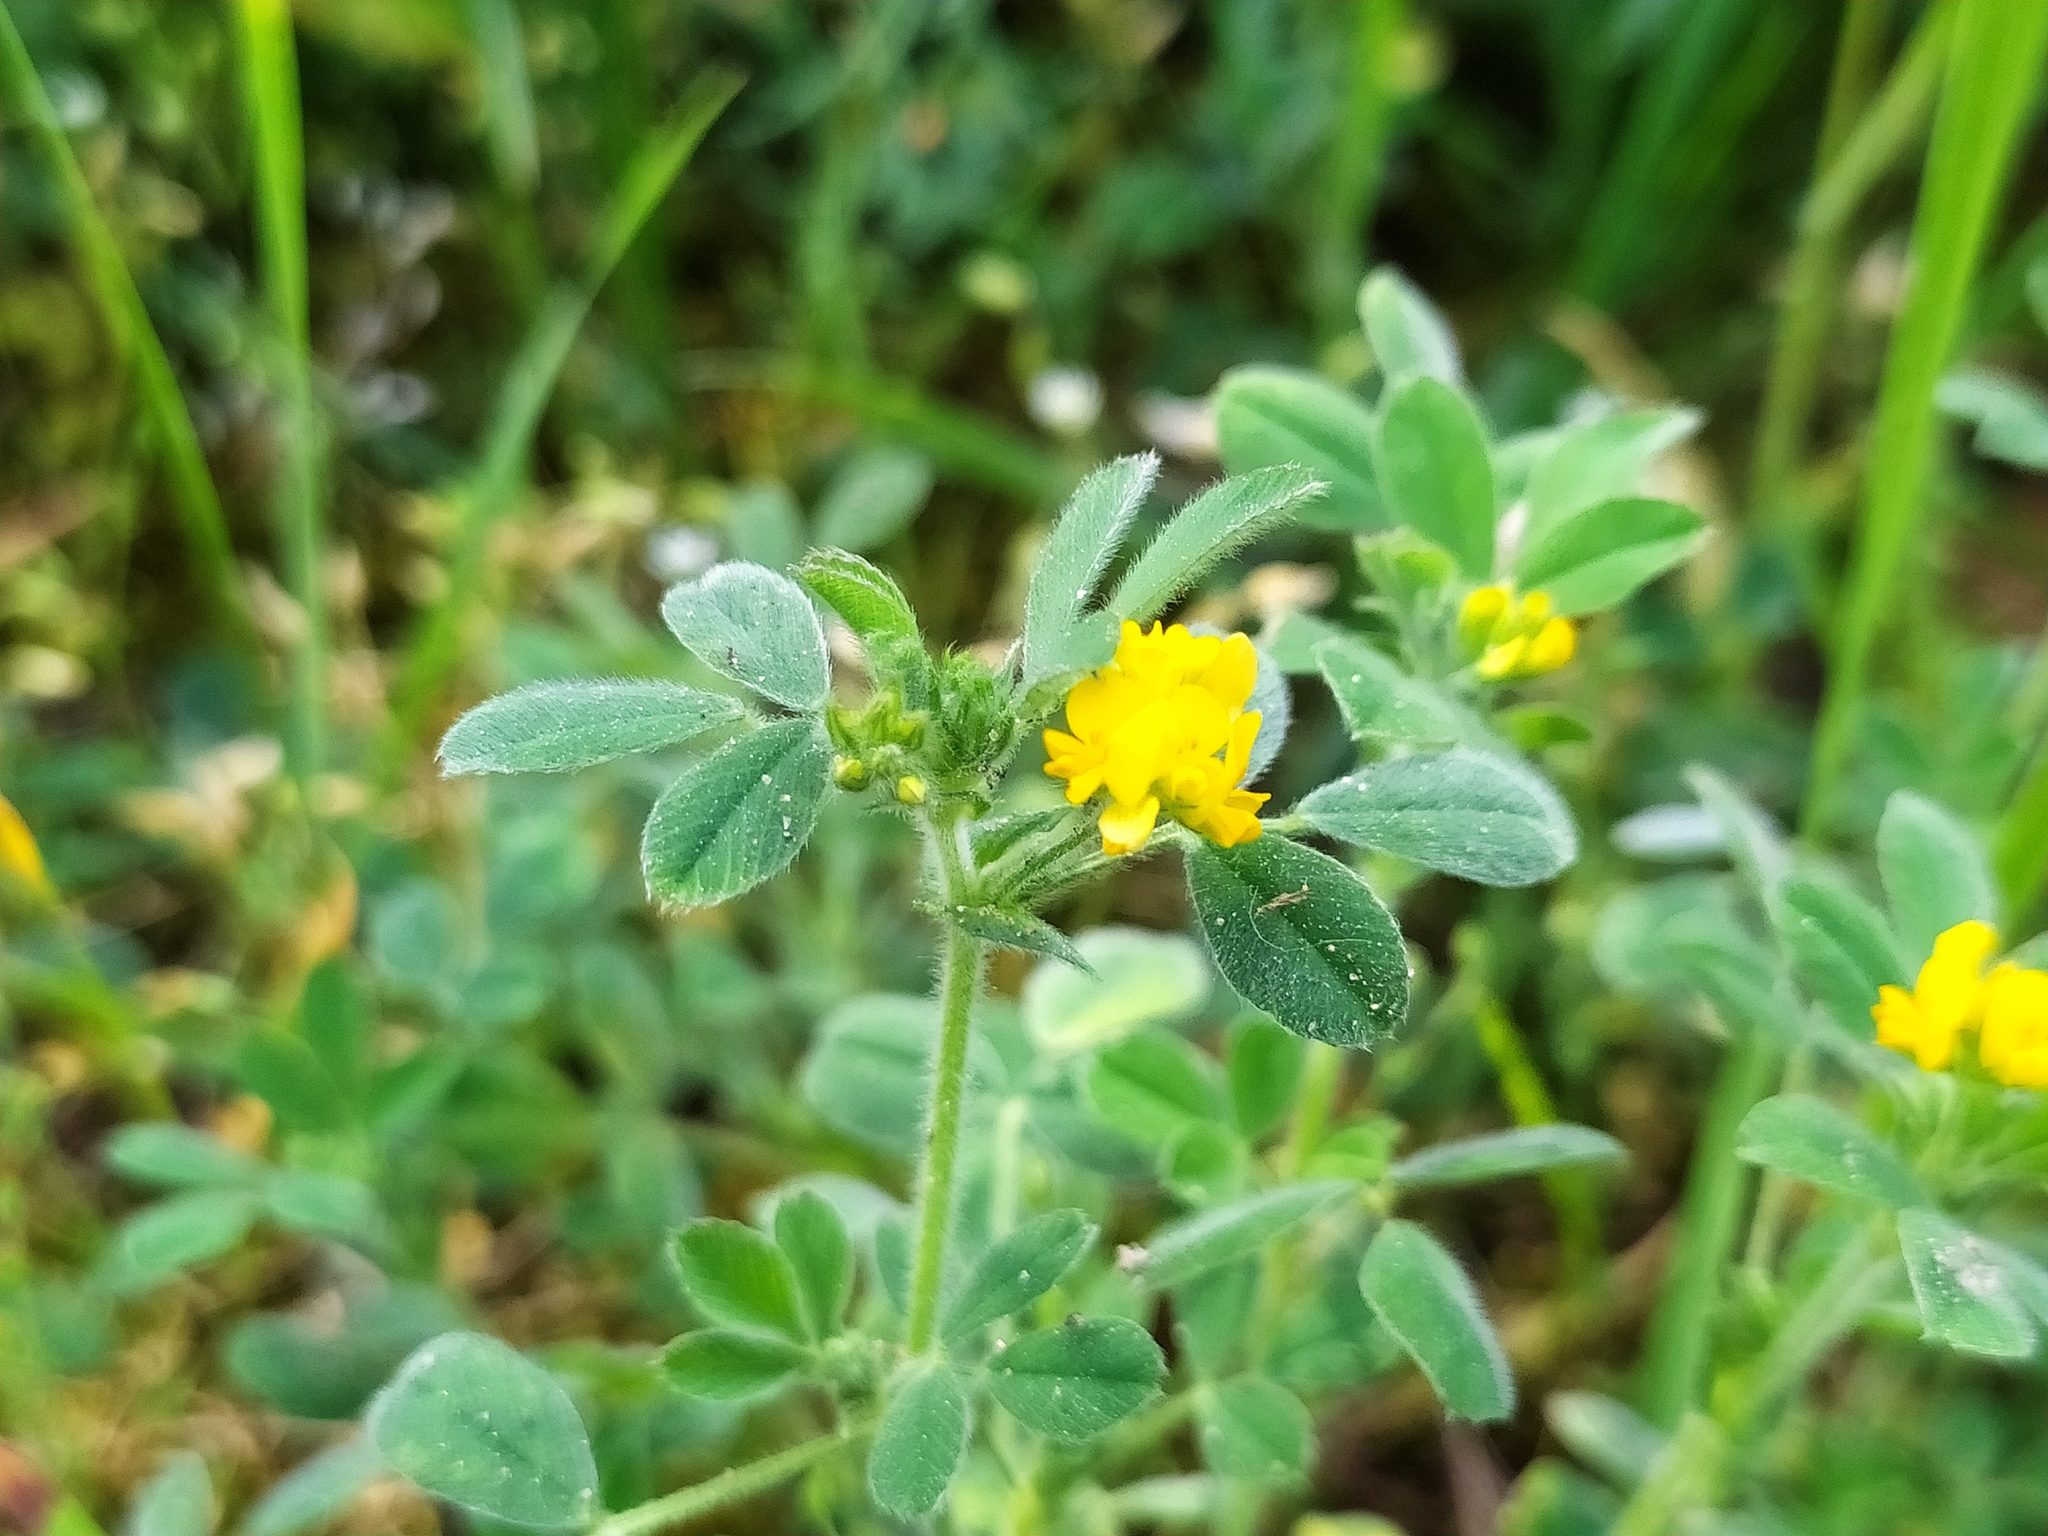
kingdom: Plantae
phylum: Tracheophyta
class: Magnoliopsida
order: Fabales
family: Fabaceae
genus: Medicago
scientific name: Medicago minima
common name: Little bur-clover
